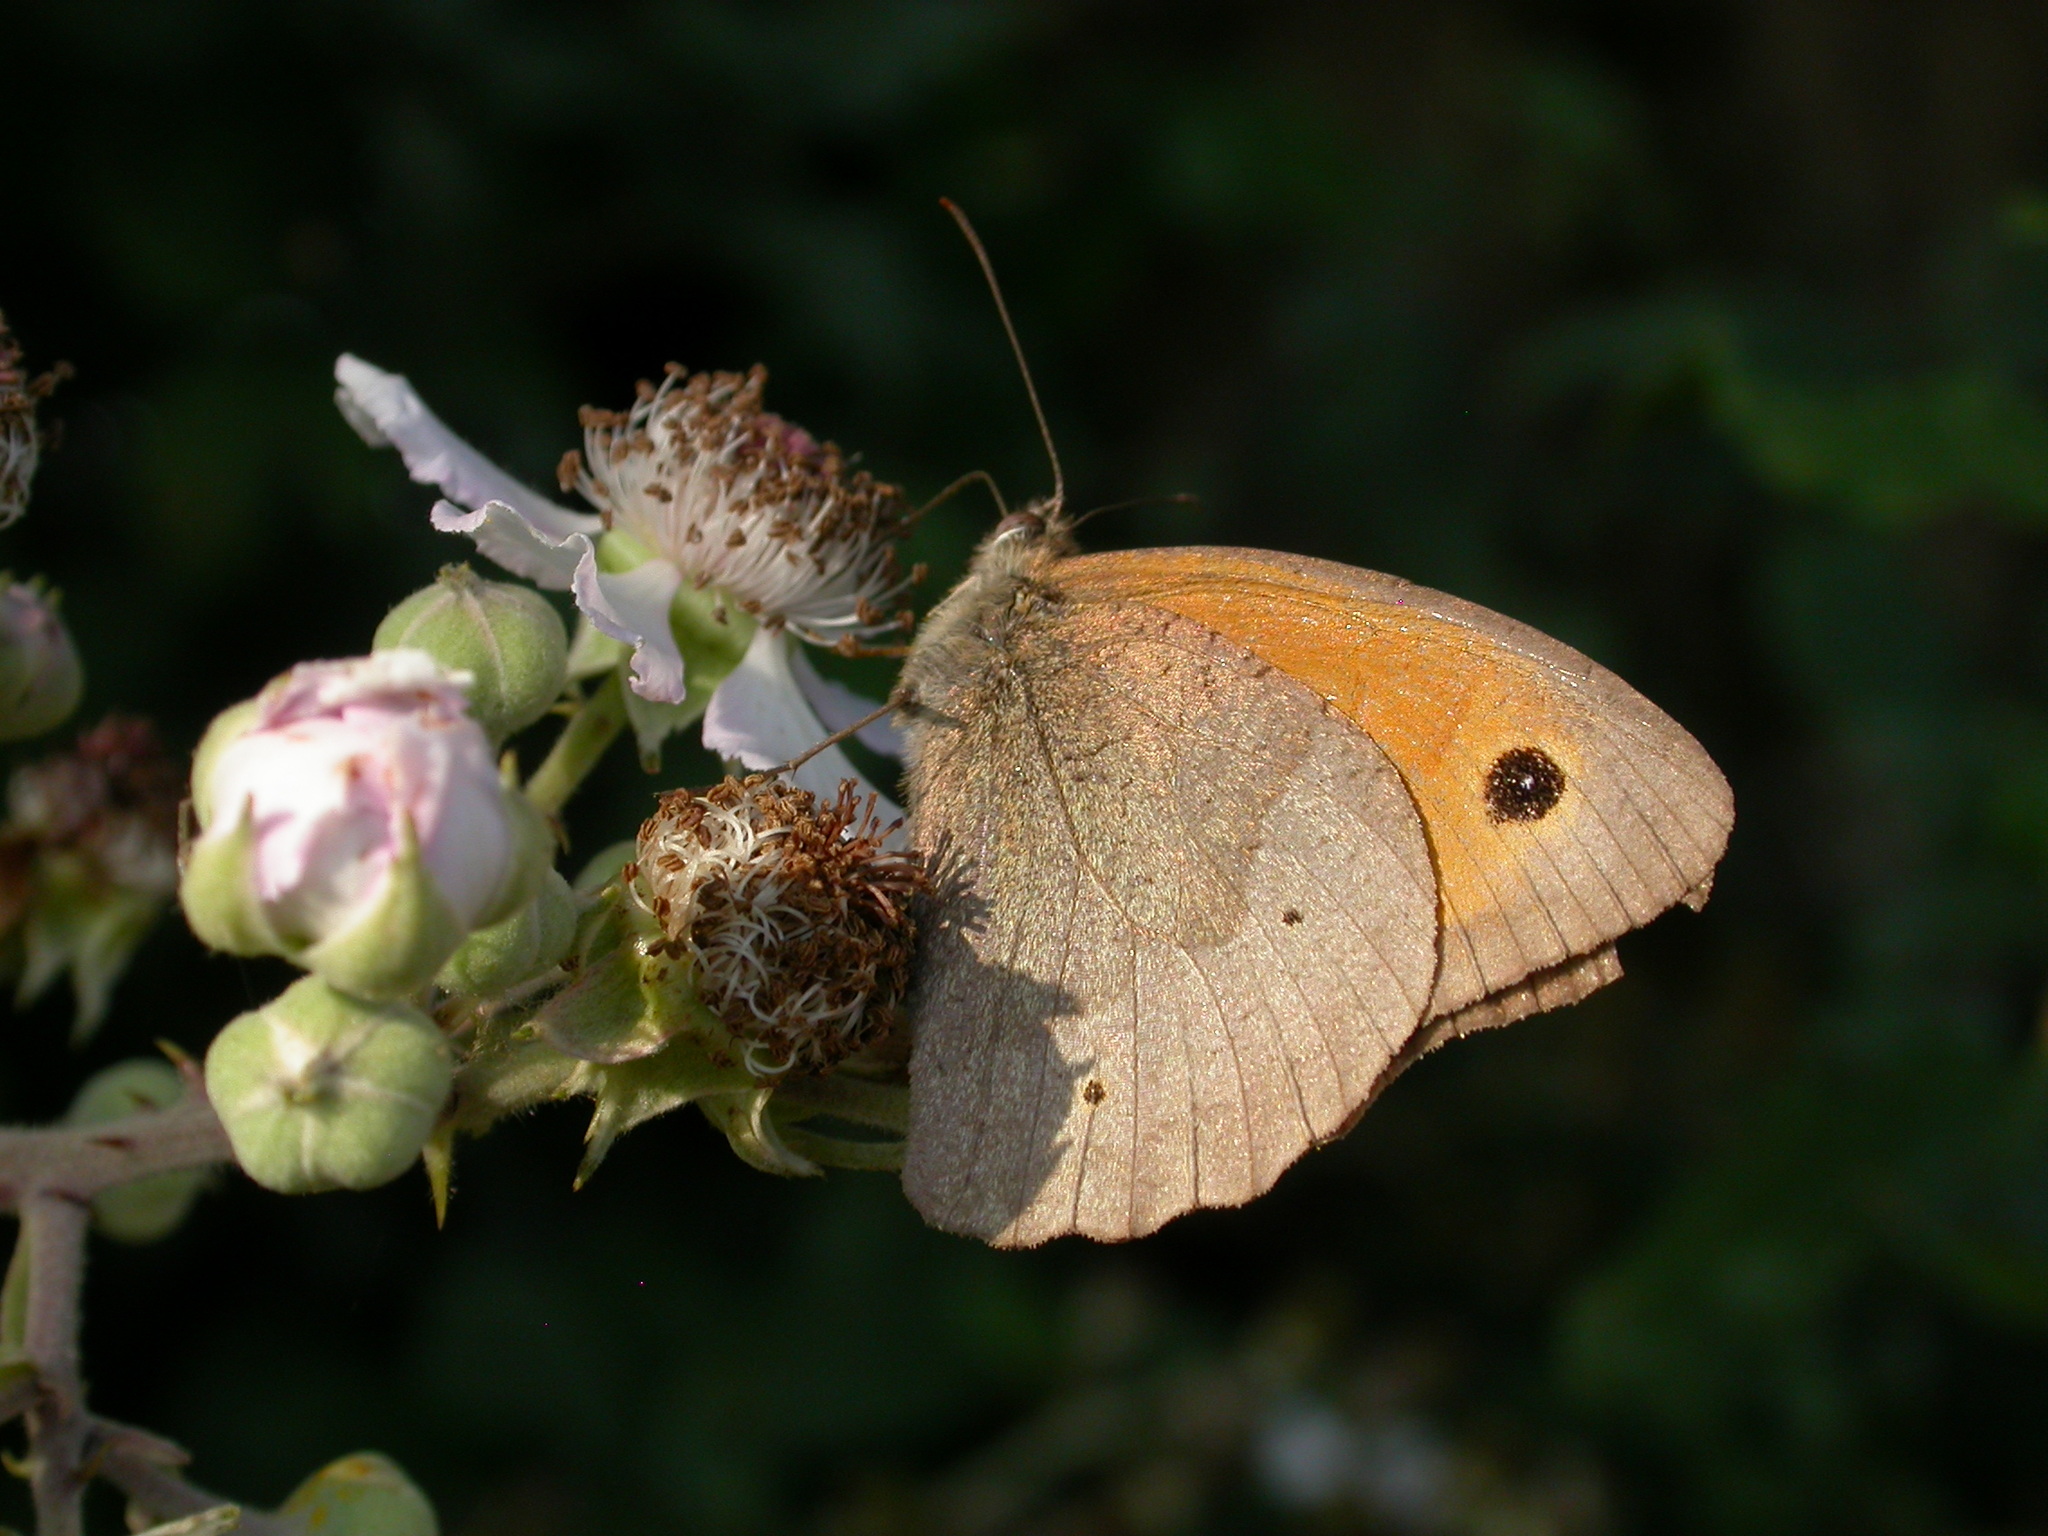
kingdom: Animalia
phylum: Arthropoda
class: Insecta
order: Lepidoptera
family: Nymphalidae
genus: Maniola
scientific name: Maniola jurtina
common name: Meadow brown
